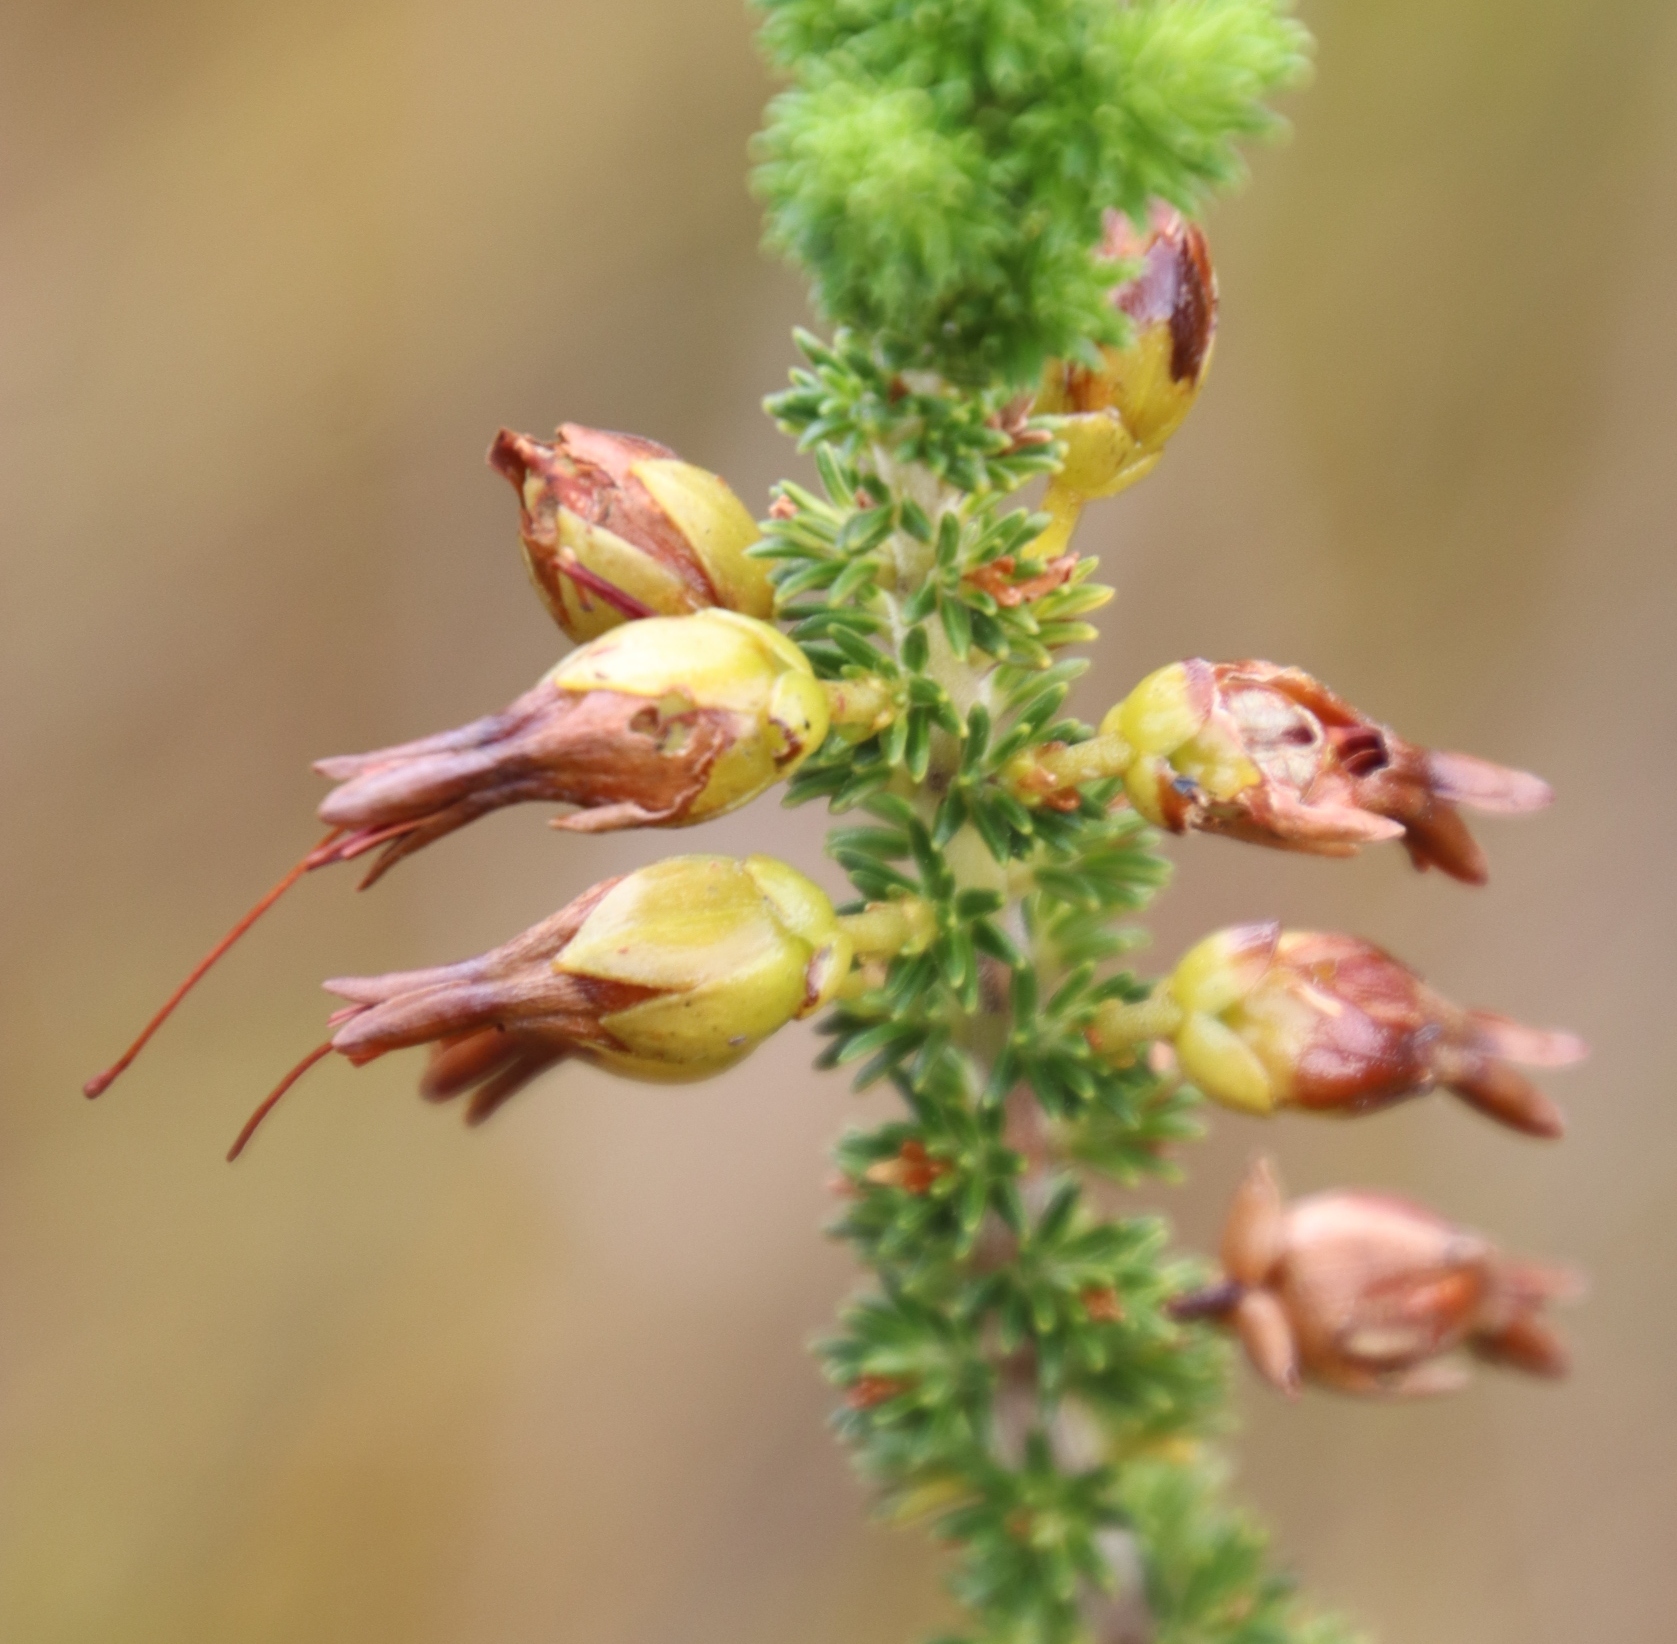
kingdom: Plantae
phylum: Tracheophyta
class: Magnoliopsida
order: Ericales
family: Ericaceae
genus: Erica
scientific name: Erica melastoma
